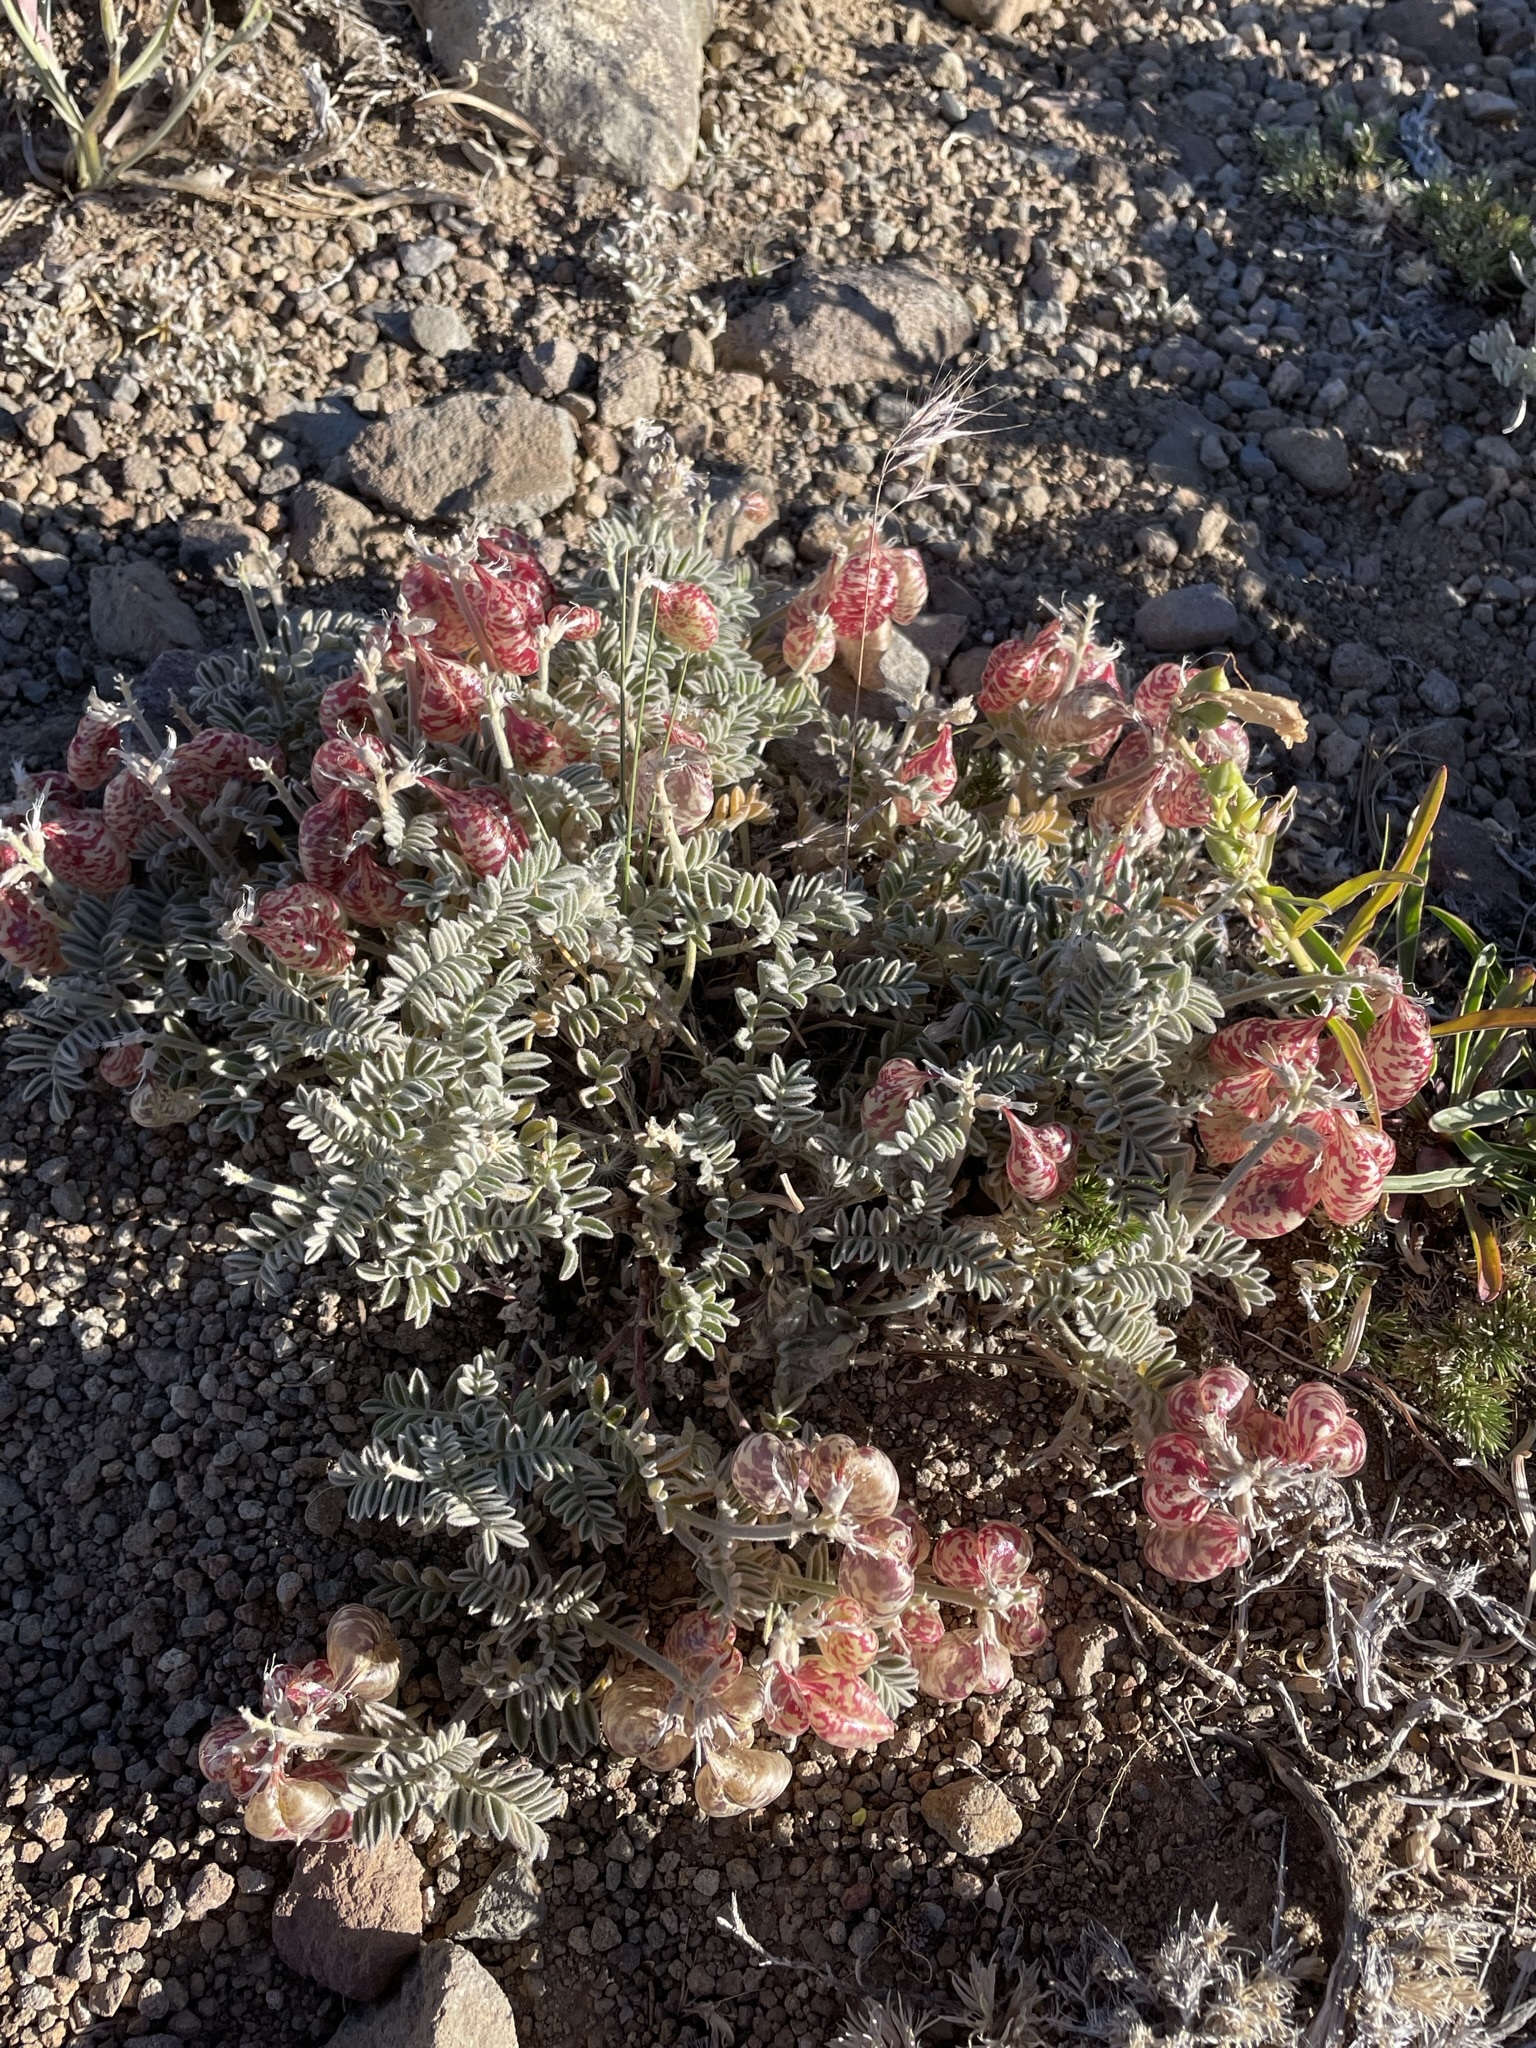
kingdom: Plantae
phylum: Tracheophyta
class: Magnoliopsida
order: Fabales
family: Fabaceae
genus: Astragalus
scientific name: Astragalus whitneyi
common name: Balloonpod milkvetch
